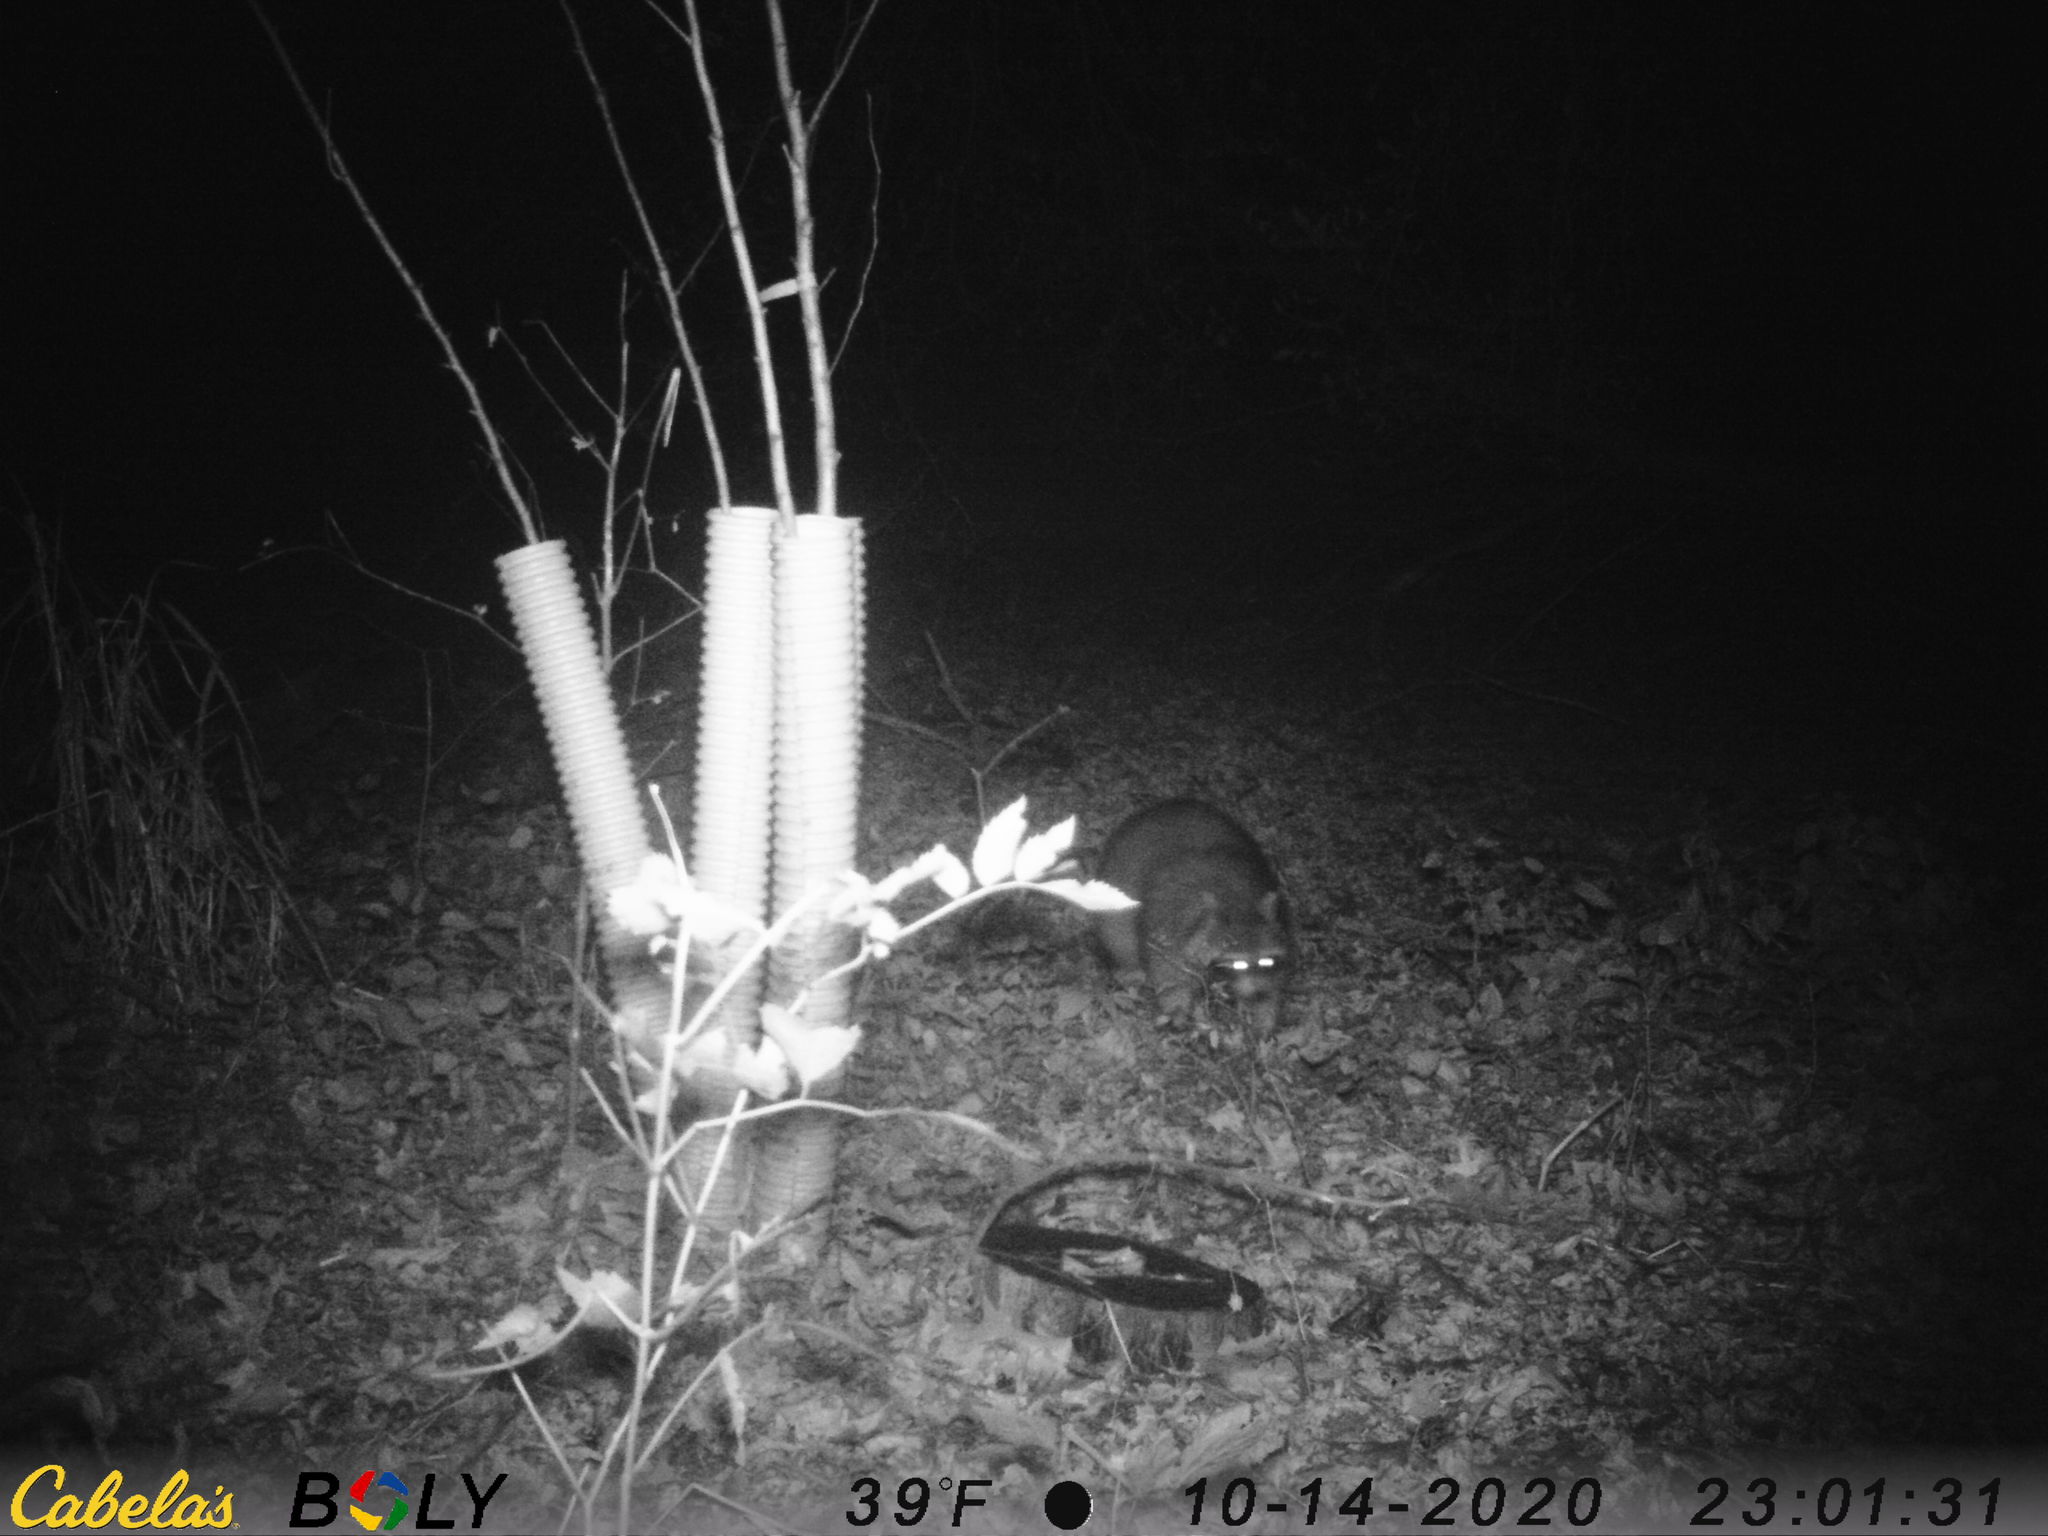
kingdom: Animalia
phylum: Chordata
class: Mammalia
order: Carnivora
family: Procyonidae
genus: Procyon
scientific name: Procyon lotor
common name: Raccoon
